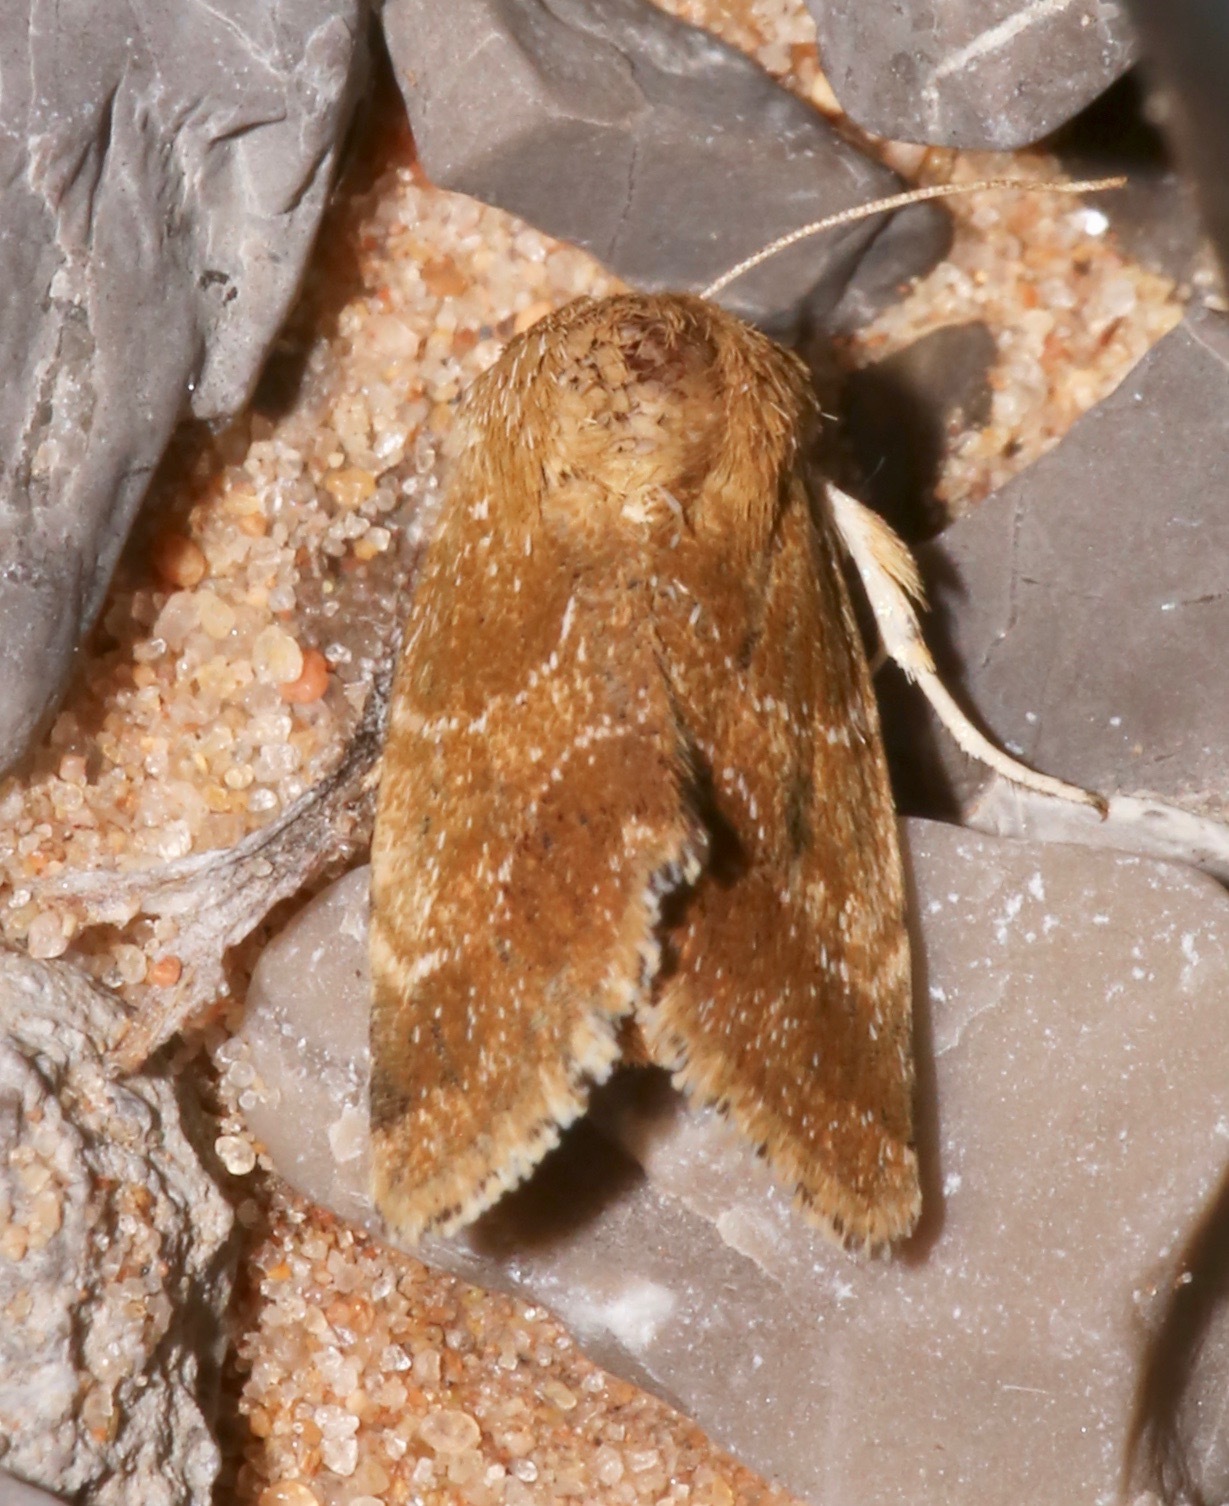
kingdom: Animalia
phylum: Arthropoda
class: Insecta
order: Lepidoptera
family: Noctuidae
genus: Schinia
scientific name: Schinia nubila
